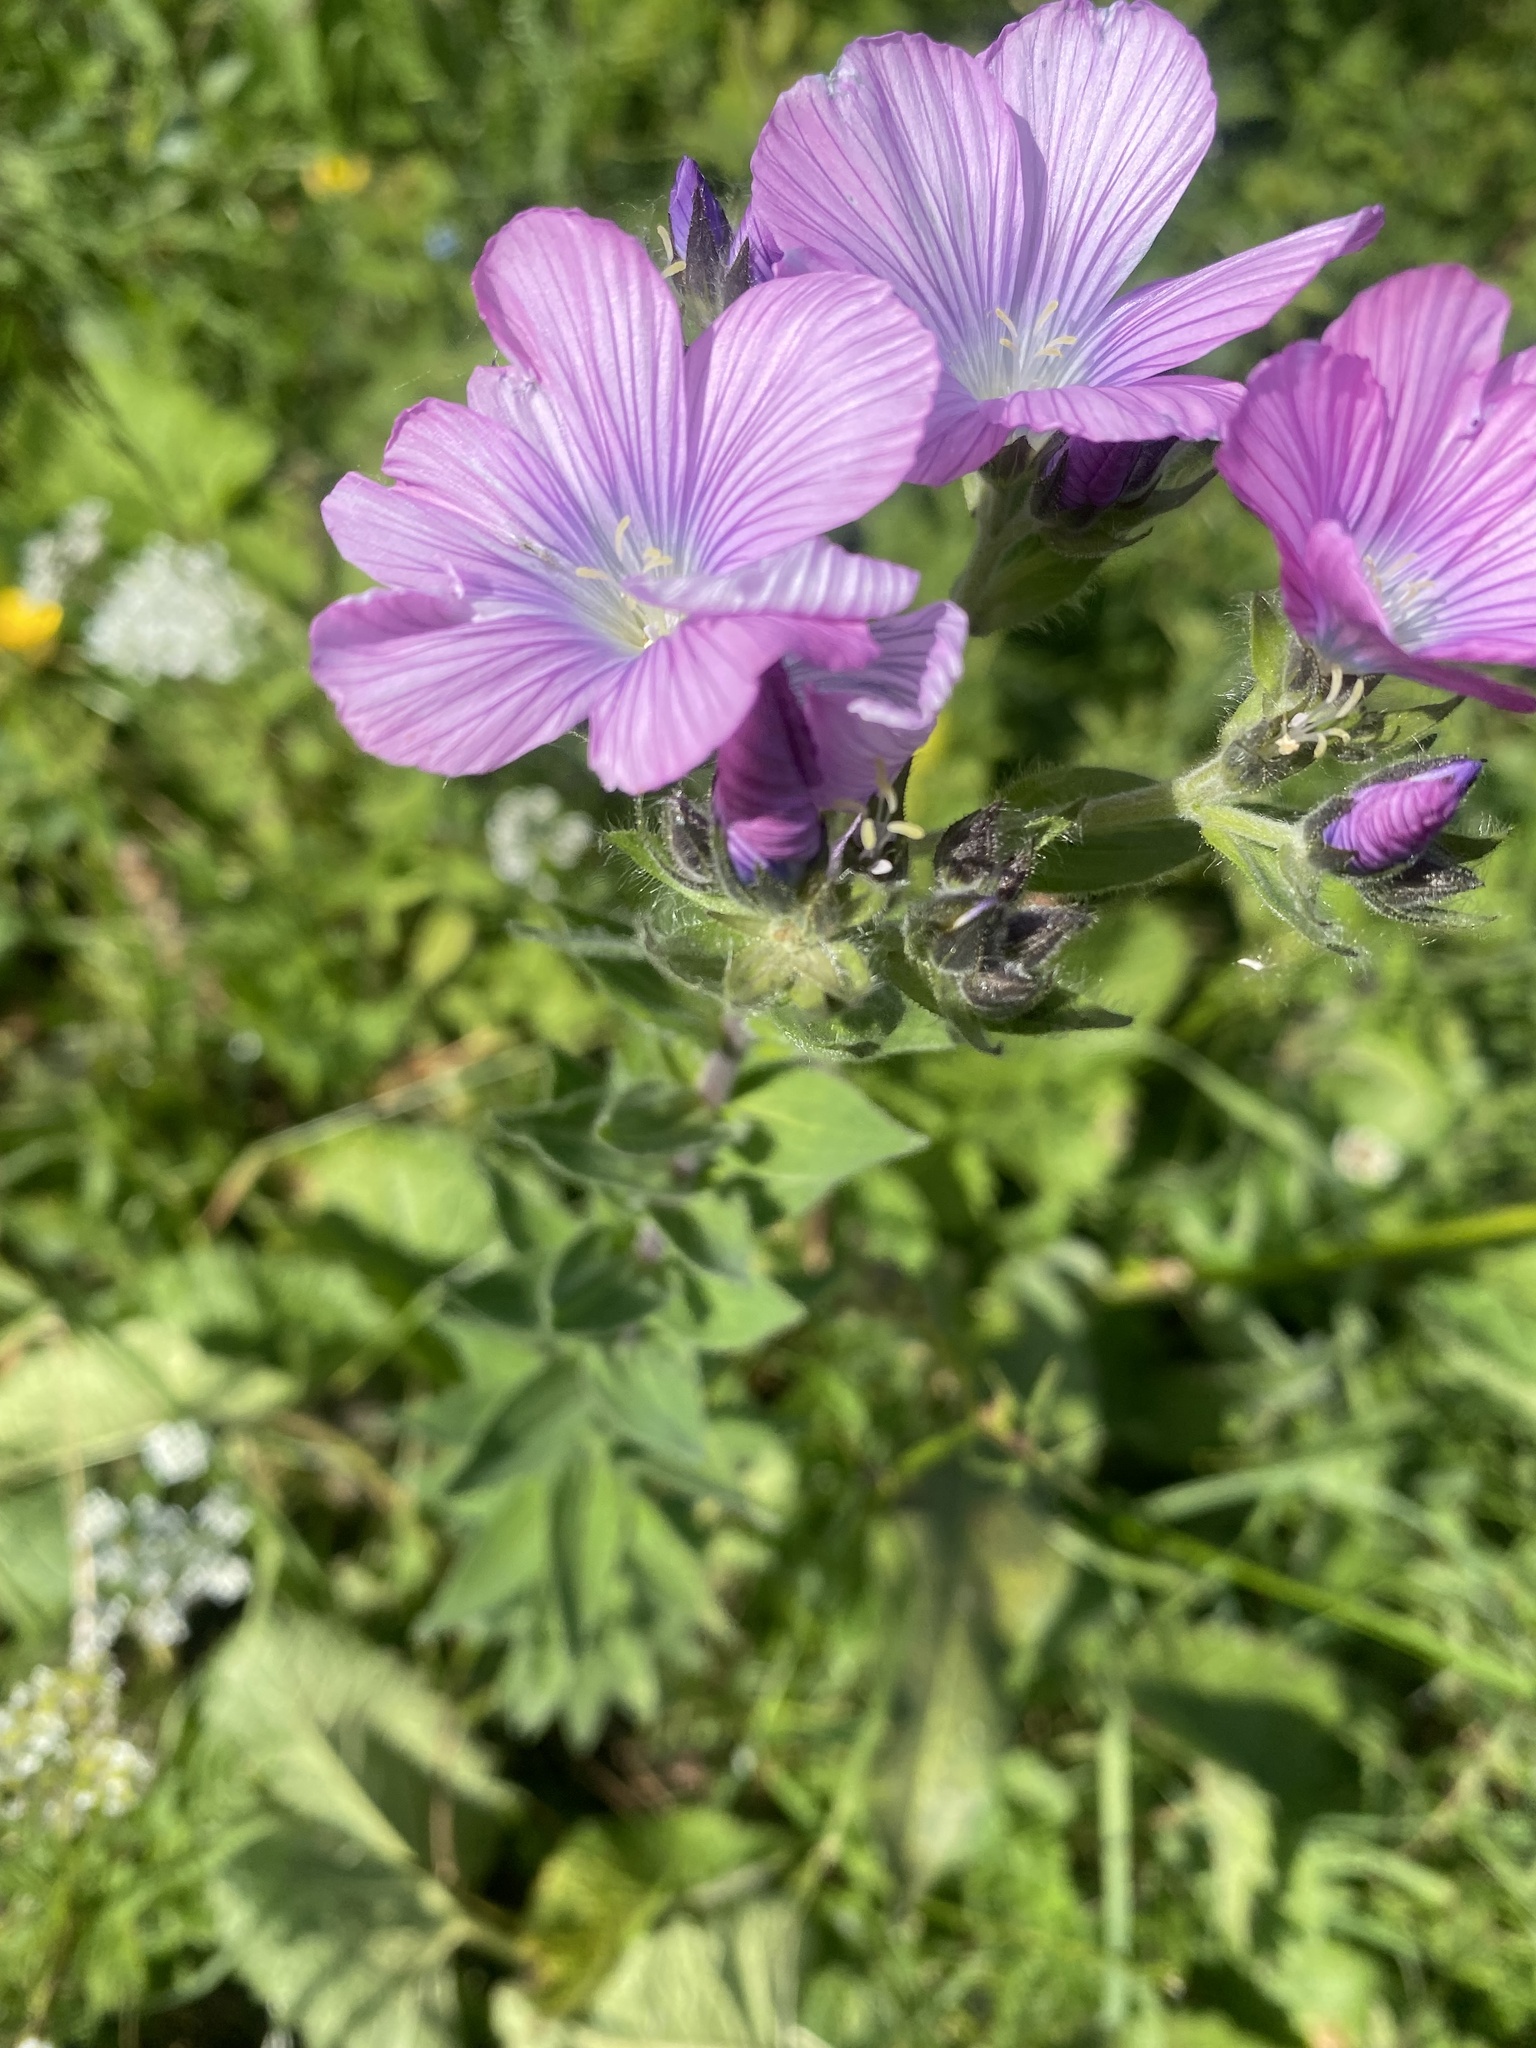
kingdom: Plantae
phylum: Tracheophyta
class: Magnoliopsida
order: Malpighiales
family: Linaceae
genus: Linum
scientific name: Linum hypericifolium
